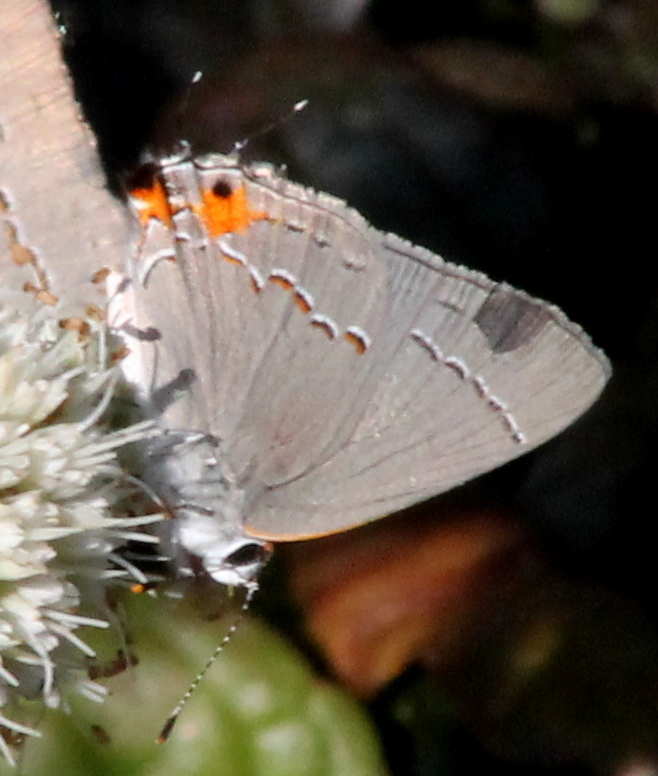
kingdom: Animalia
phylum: Arthropoda
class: Insecta
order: Lepidoptera
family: Lycaenidae
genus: Strymon
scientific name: Strymon melinus
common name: Gray hairstreak
